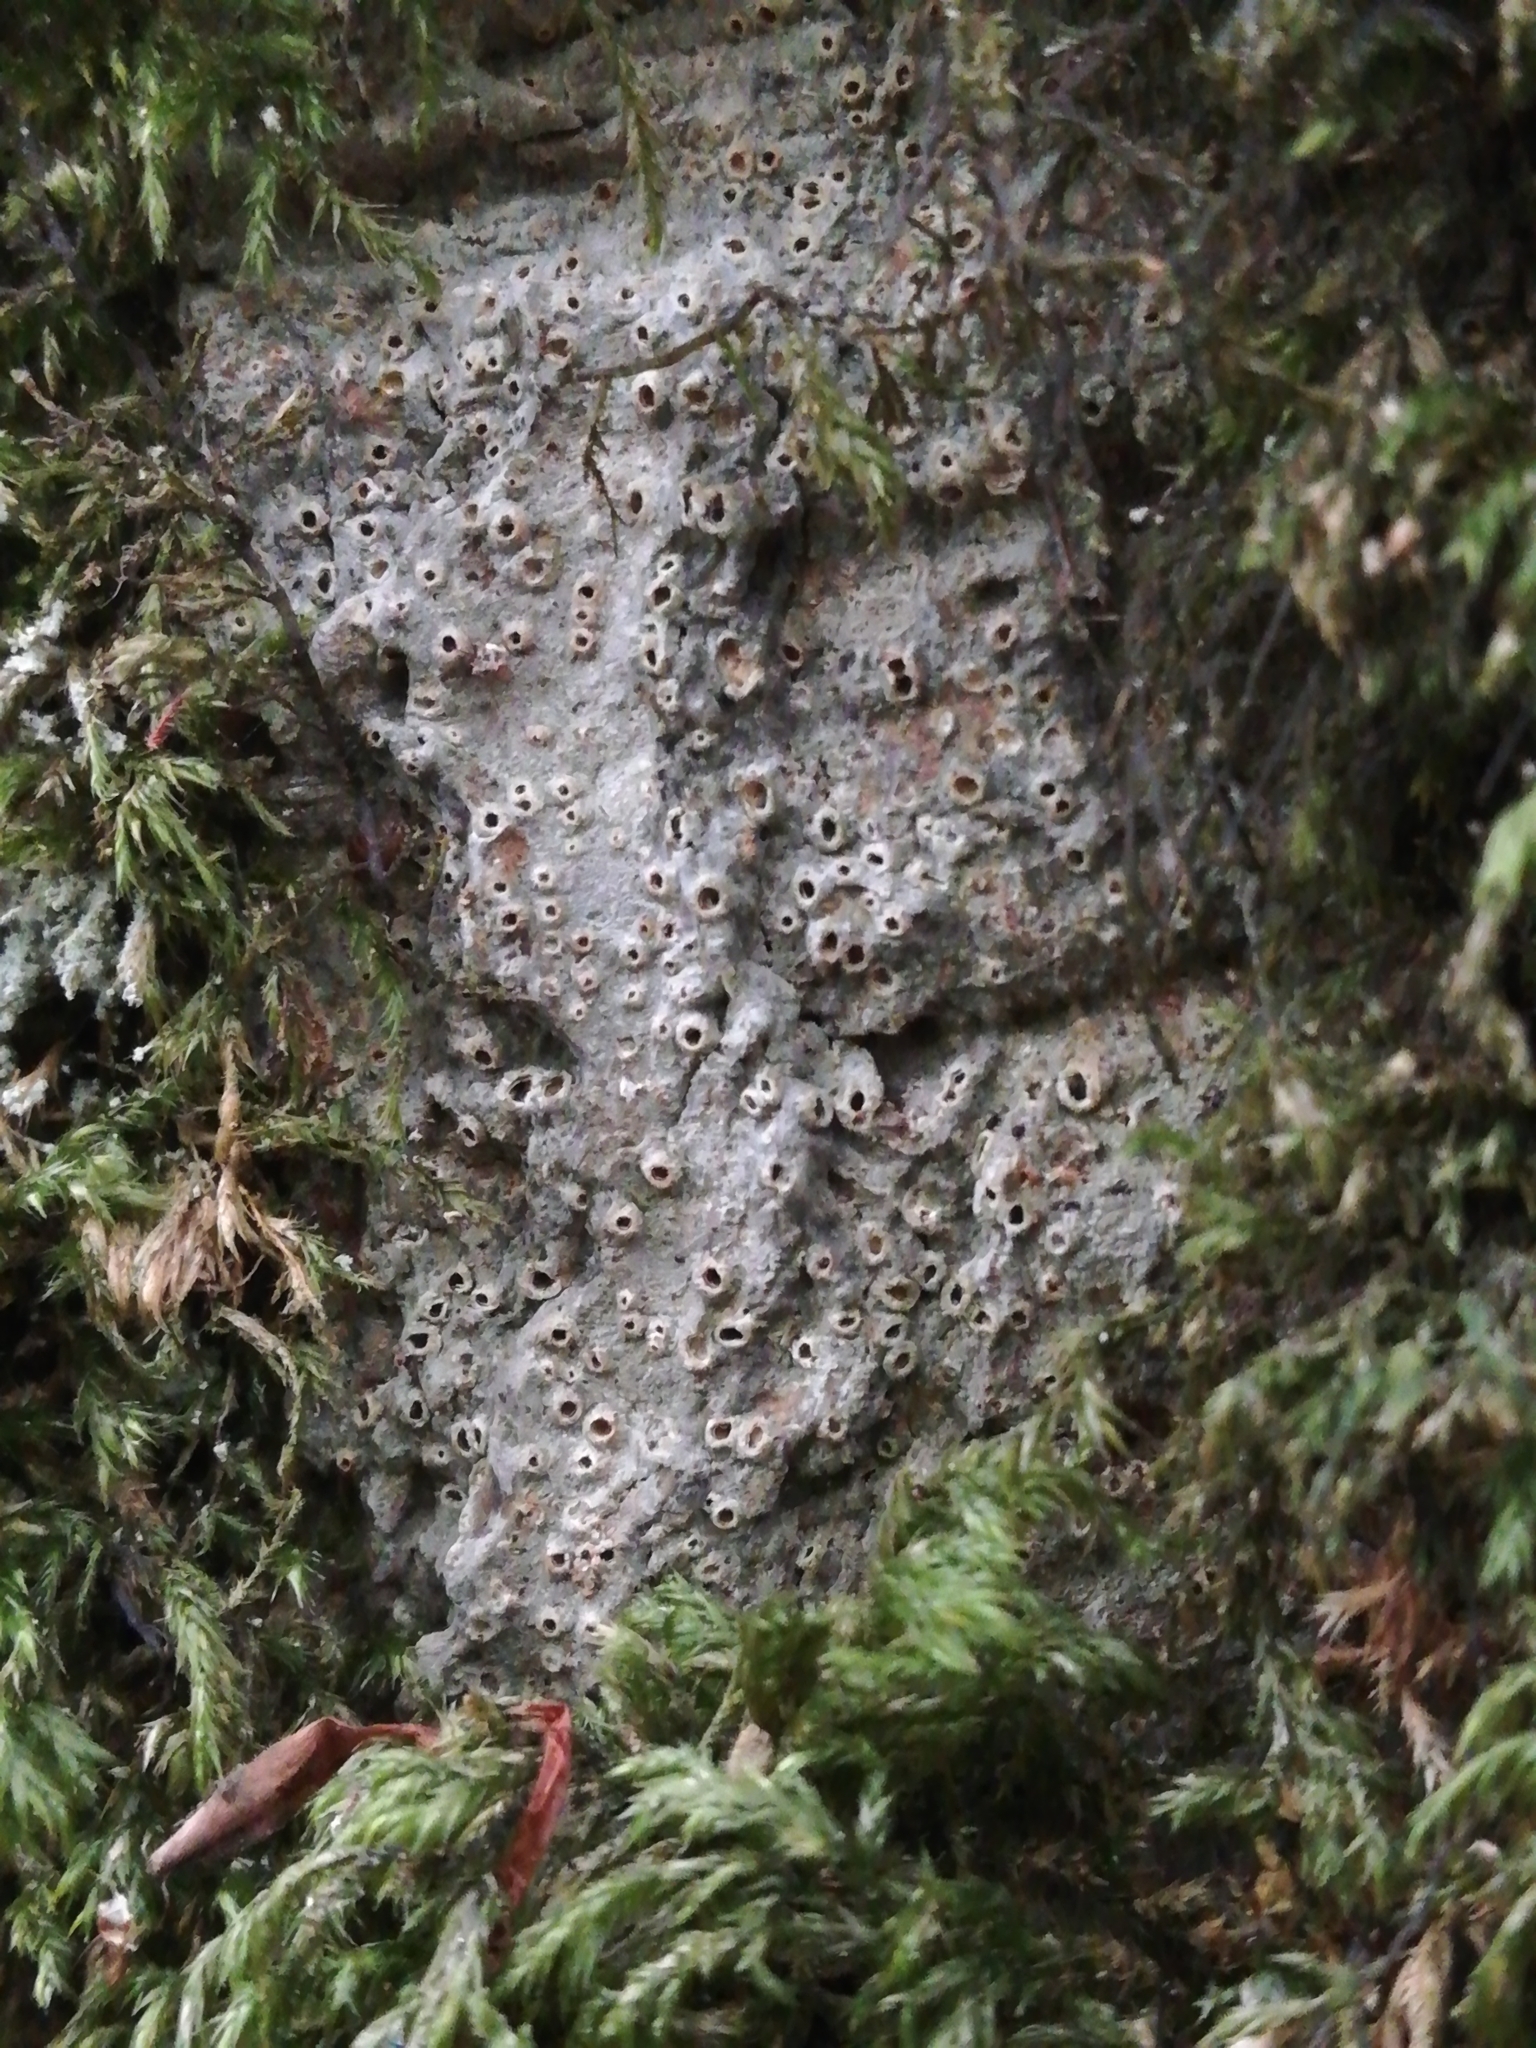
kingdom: Fungi
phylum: Ascomycota
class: Lecanoromycetes
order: Ostropales
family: Graphidaceae
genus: Thelotrema
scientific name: Thelotrema lepadinum
